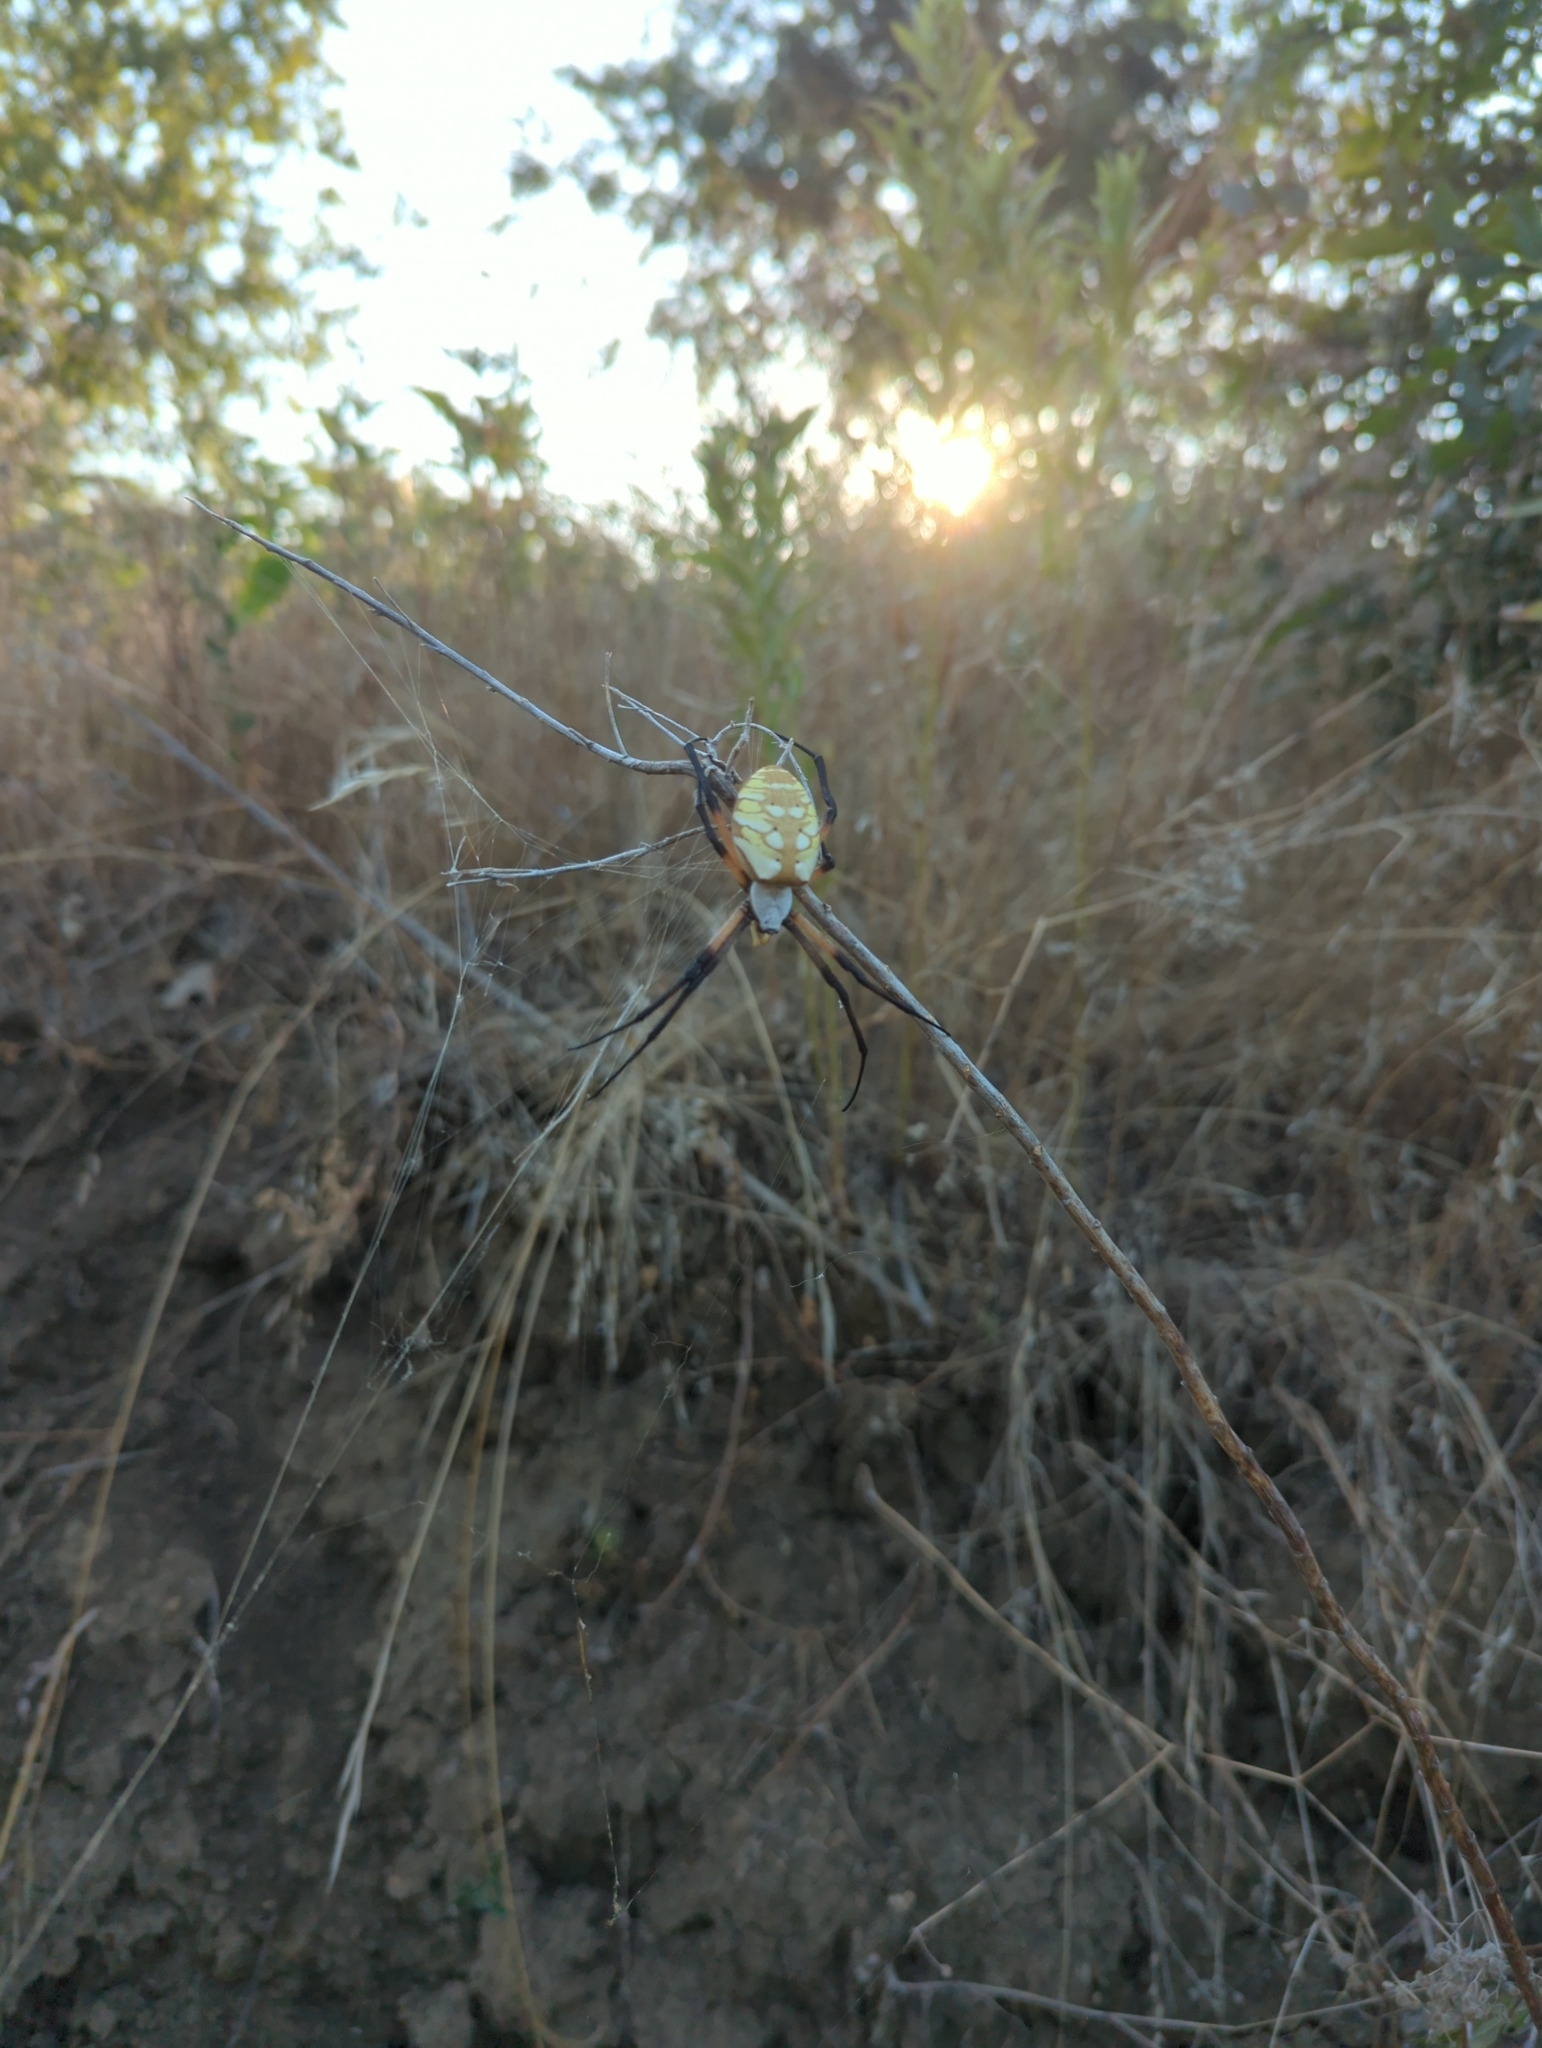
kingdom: Animalia
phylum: Arthropoda
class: Arachnida
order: Araneae
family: Araneidae
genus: Argiope
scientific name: Argiope aurantia
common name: Orb weavers
